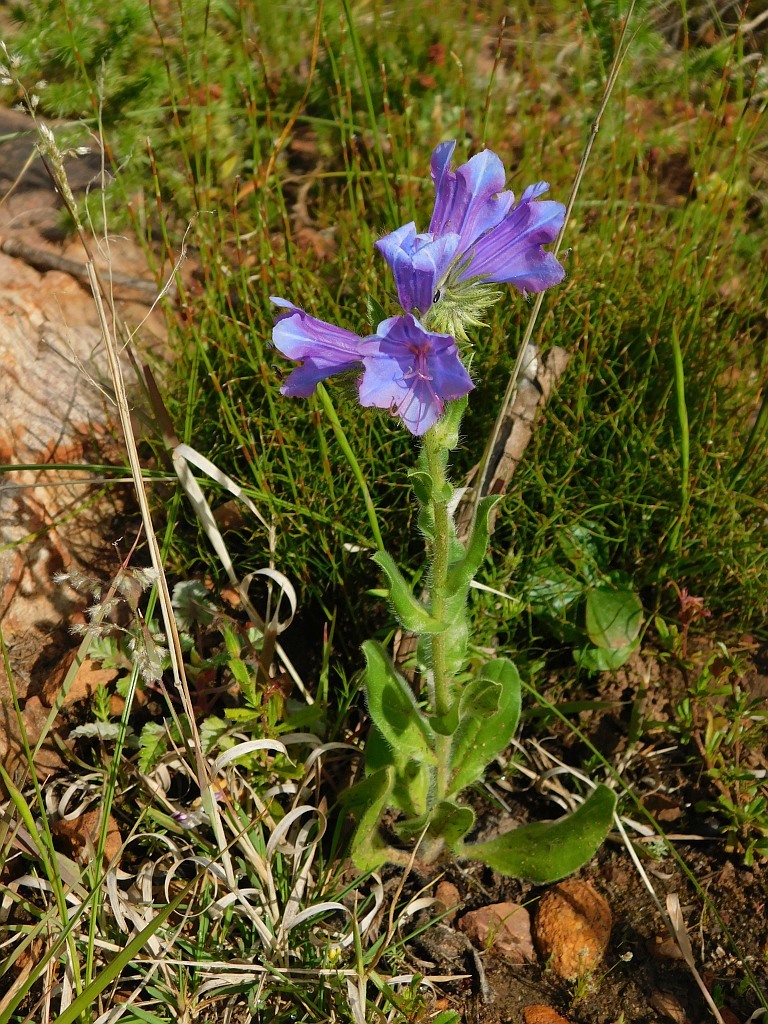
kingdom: Plantae
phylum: Tracheophyta
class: Magnoliopsida
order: Boraginales
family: Boraginaceae
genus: Echium
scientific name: Echium plantagineum
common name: Purple viper's-bugloss
